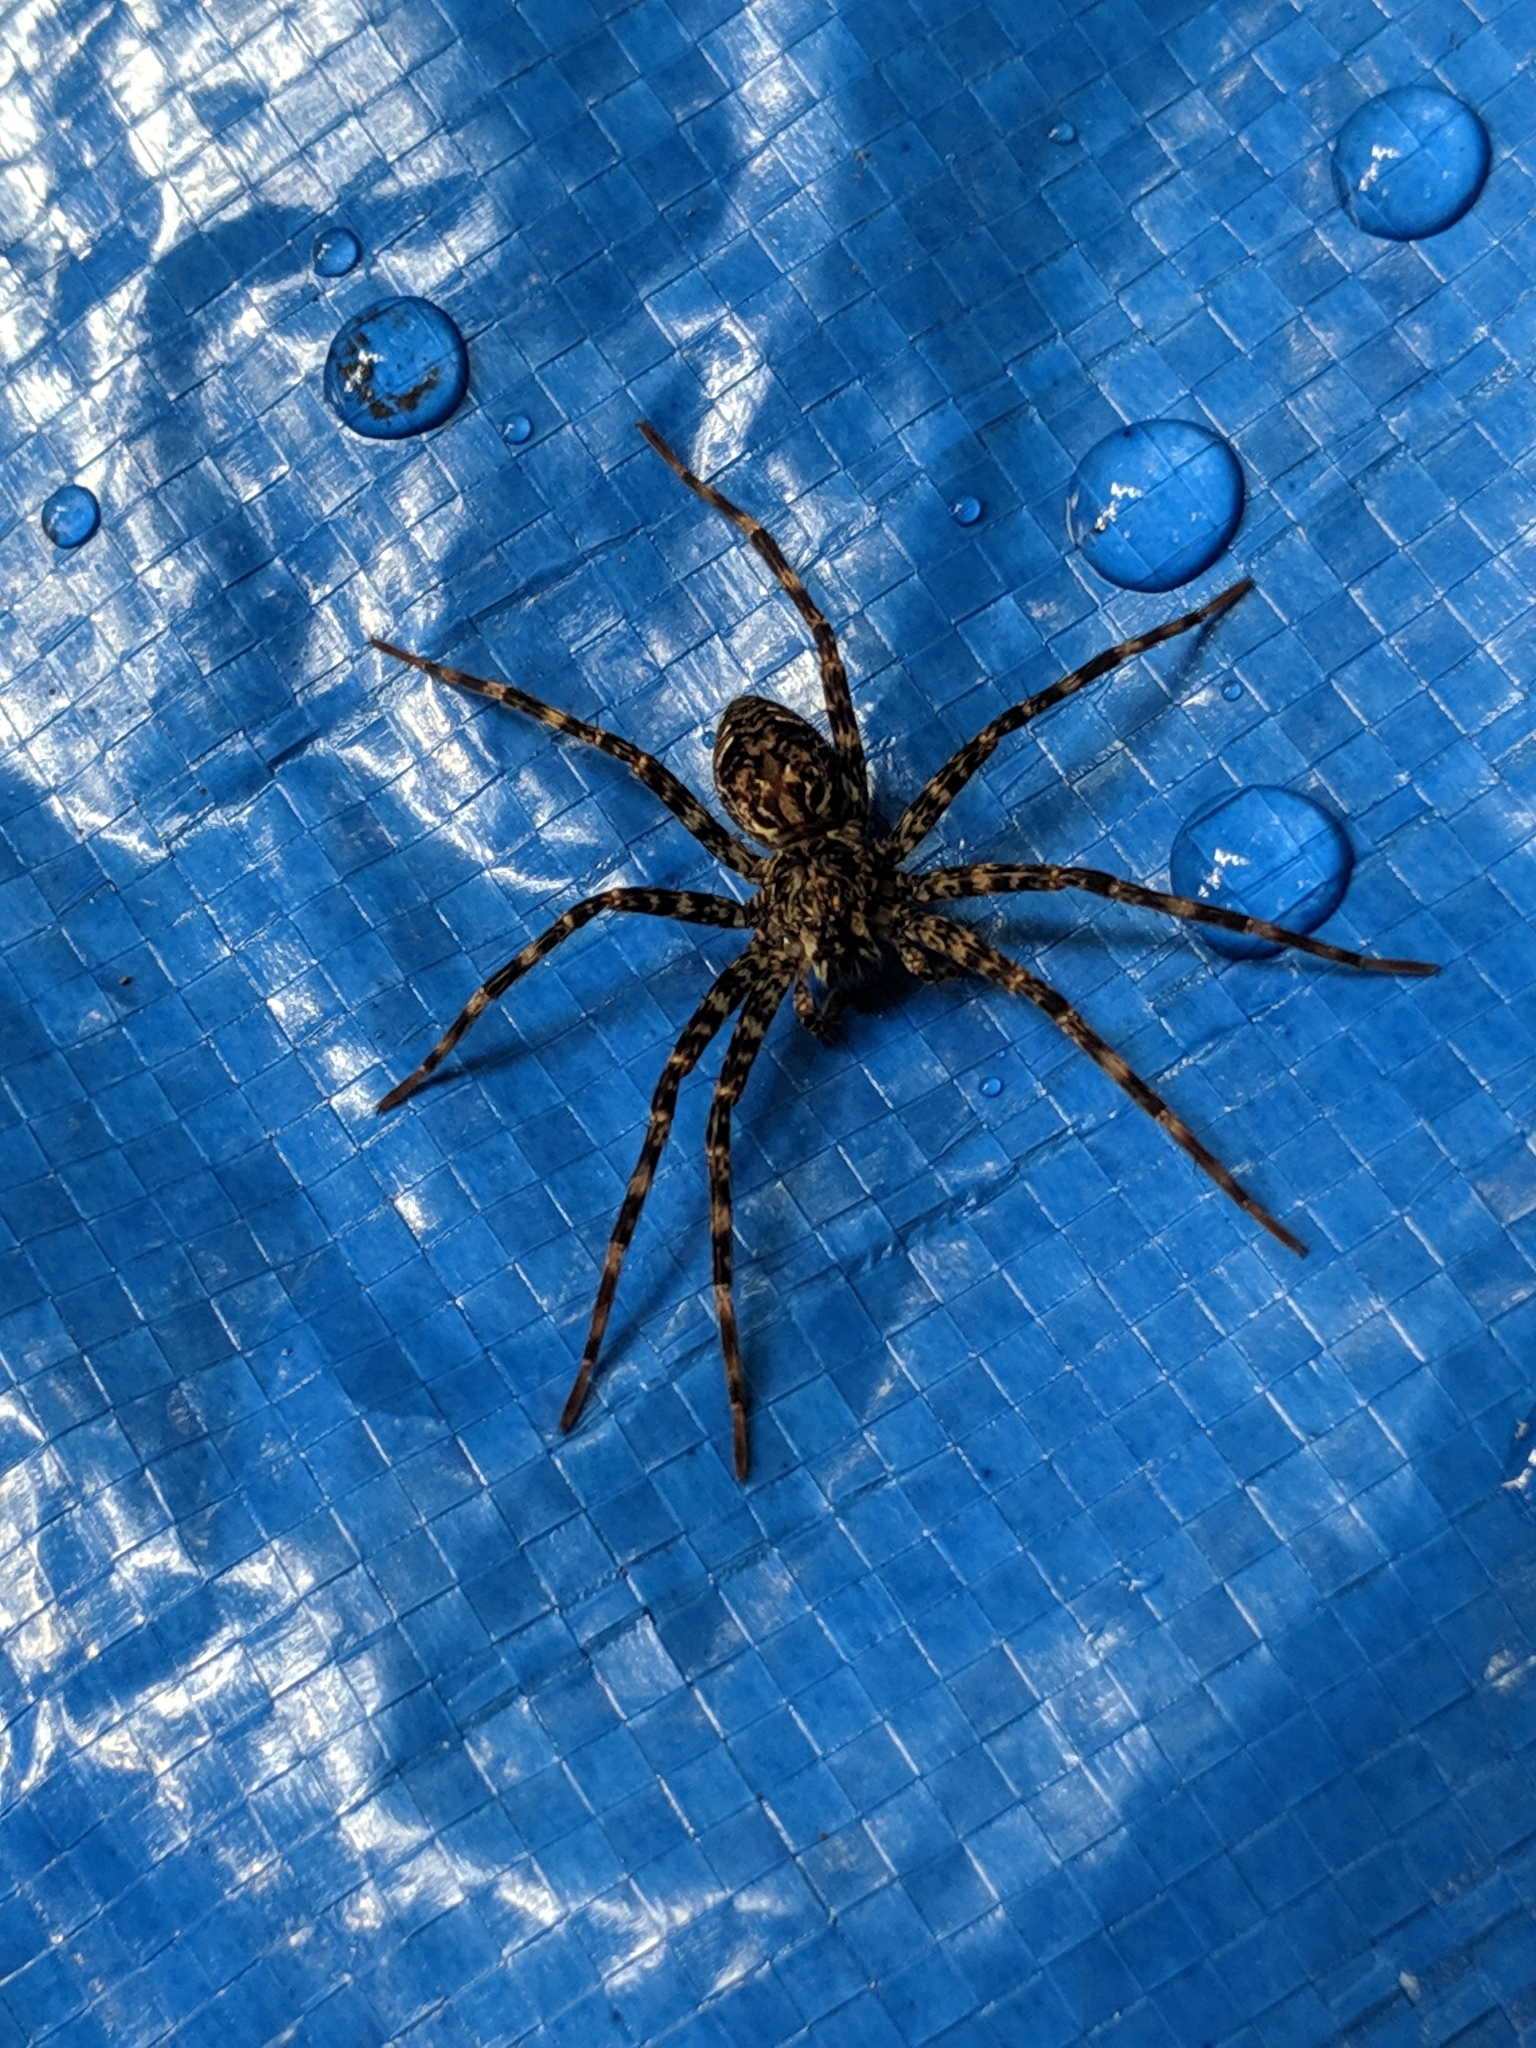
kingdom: Animalia
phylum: Arthropoda
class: Arachnida
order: Araneae
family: Pisauridae
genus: Dolomedes
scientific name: Dolomedes tenebrosus
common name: Dark fishing spider
